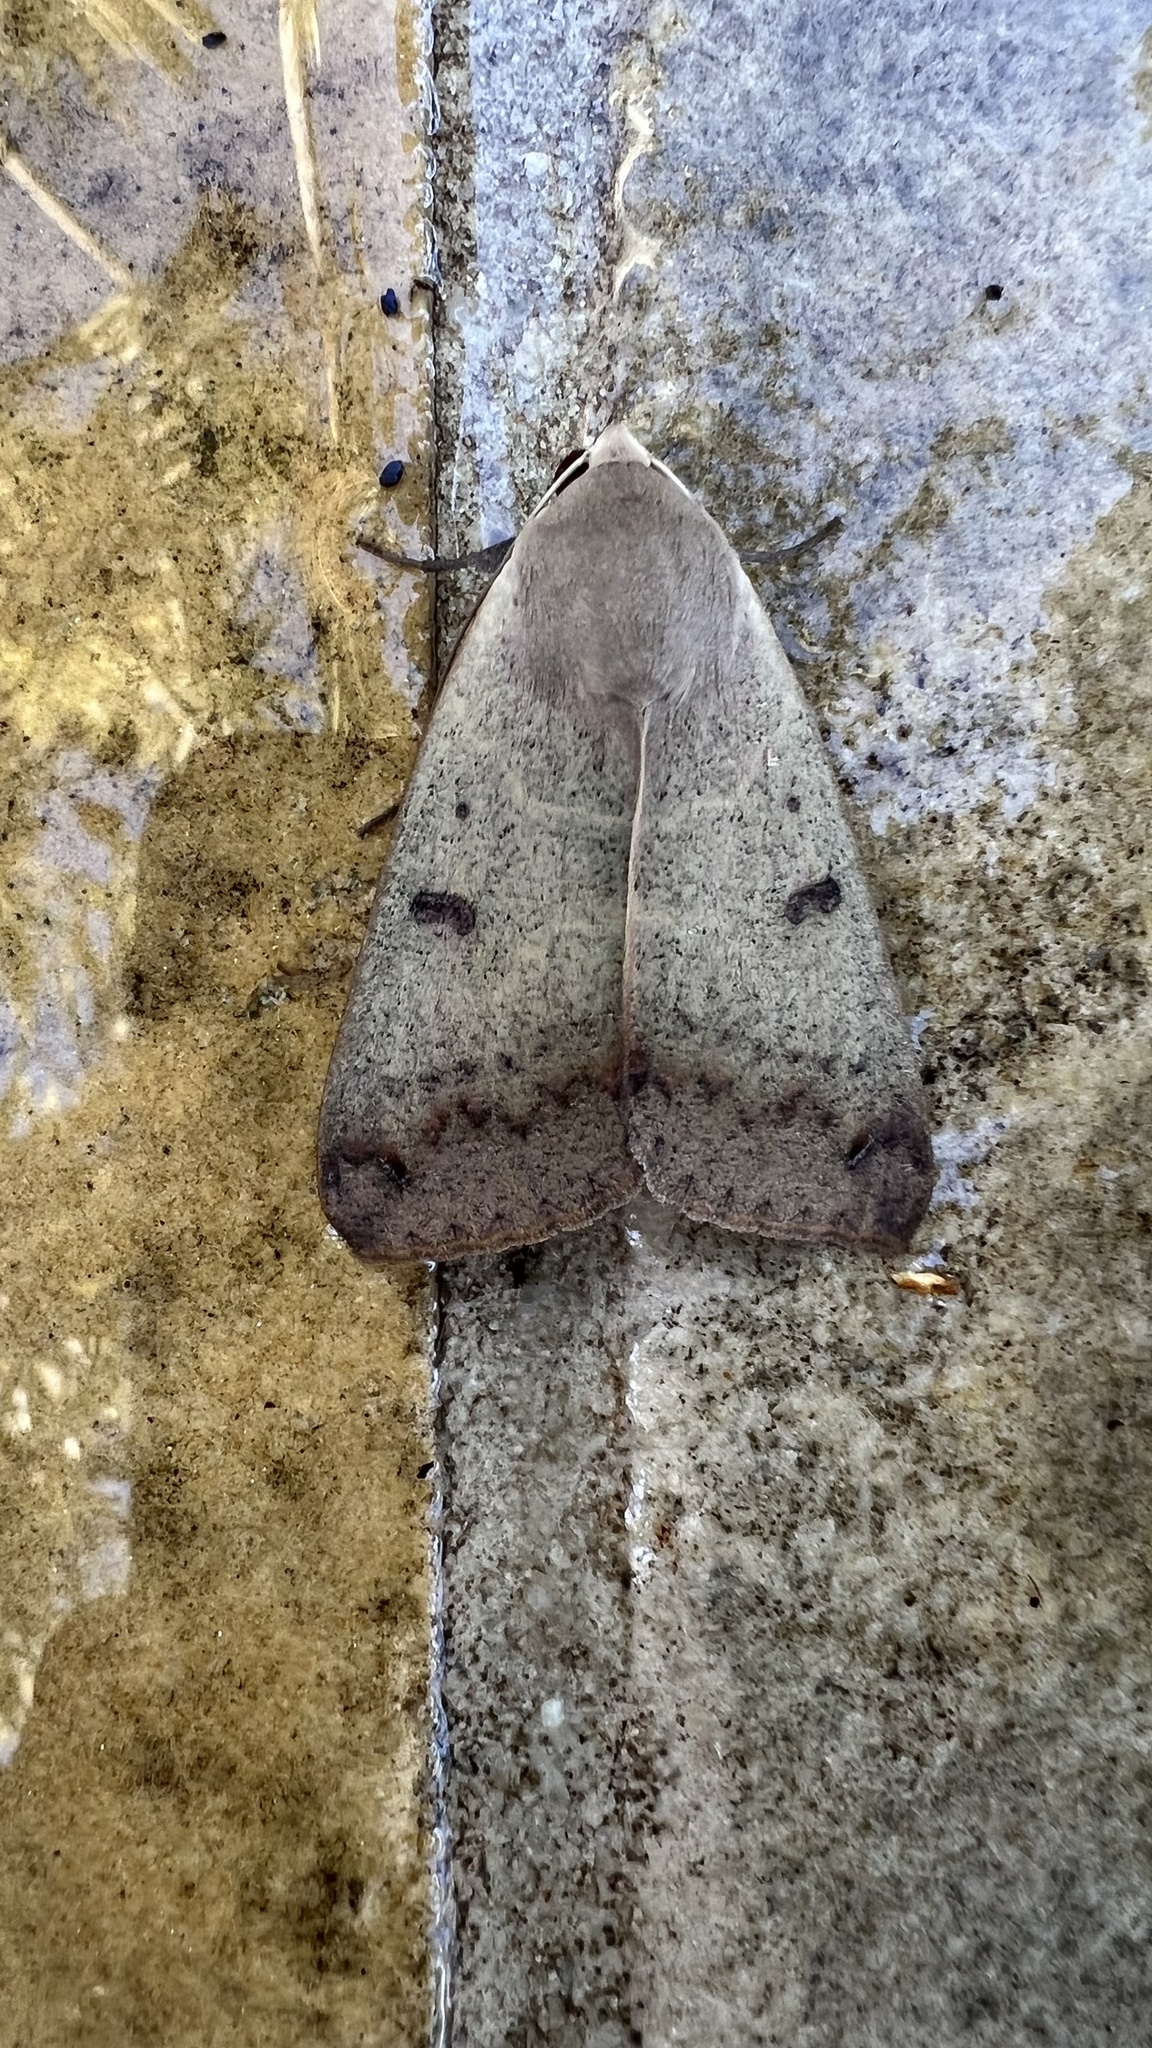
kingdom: Animalia
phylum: Arthropoda
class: Insecta
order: Lepidoptera
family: Erebidae
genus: Ophiusa
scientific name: Ophiusa disjungens
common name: Moth
